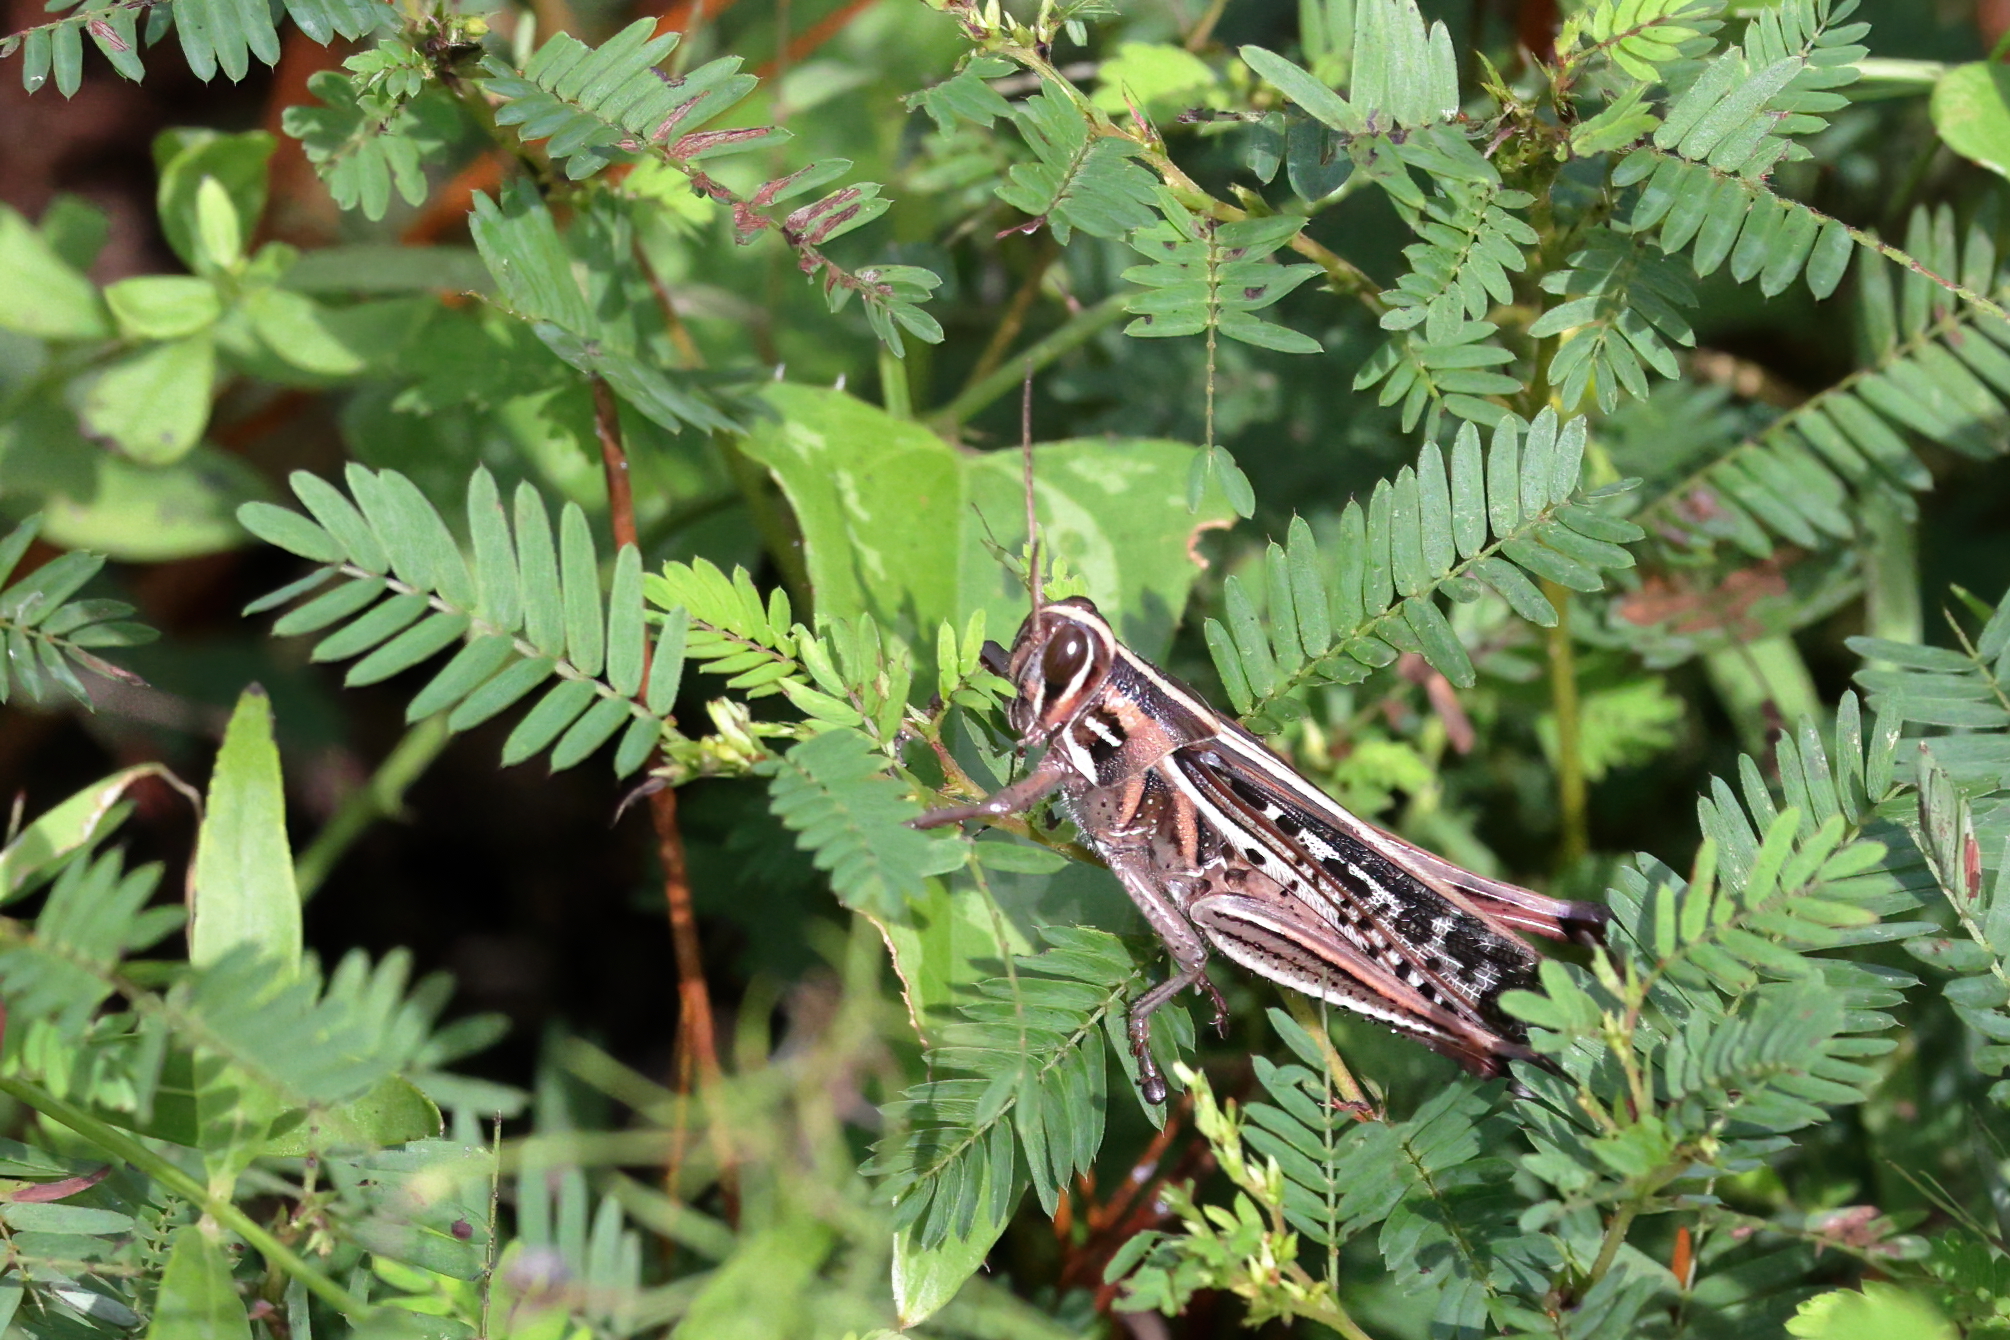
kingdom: Animalia
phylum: Arthropoda
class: Insecta
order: Orthoptera
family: Acrididae
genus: Schistocerca
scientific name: Schistocerca americana
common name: American bird locust
